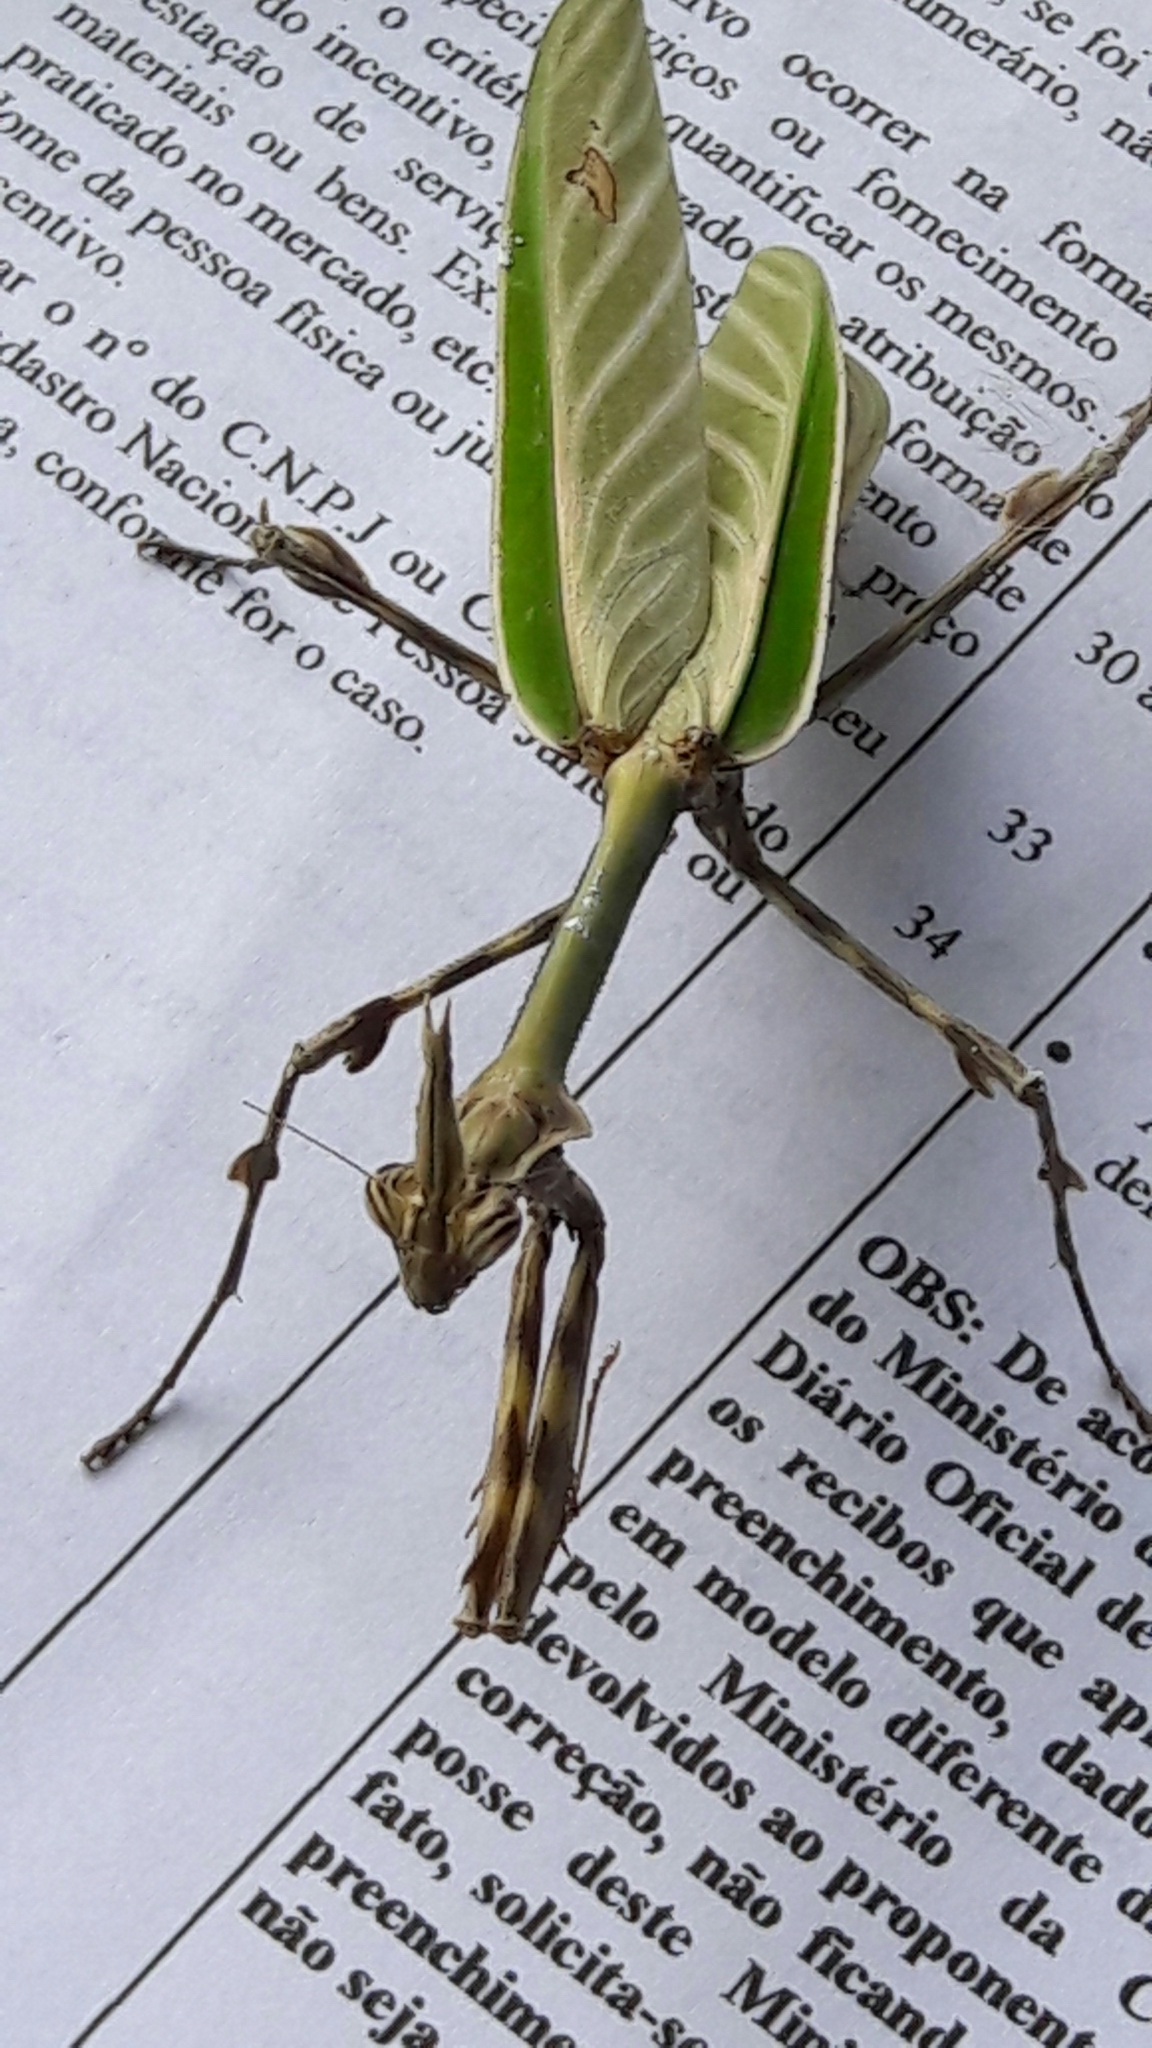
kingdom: Animalia
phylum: Arthropoda
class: Insecta
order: Mantodea
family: Mantidae
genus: Zoolea
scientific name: Zoolea
